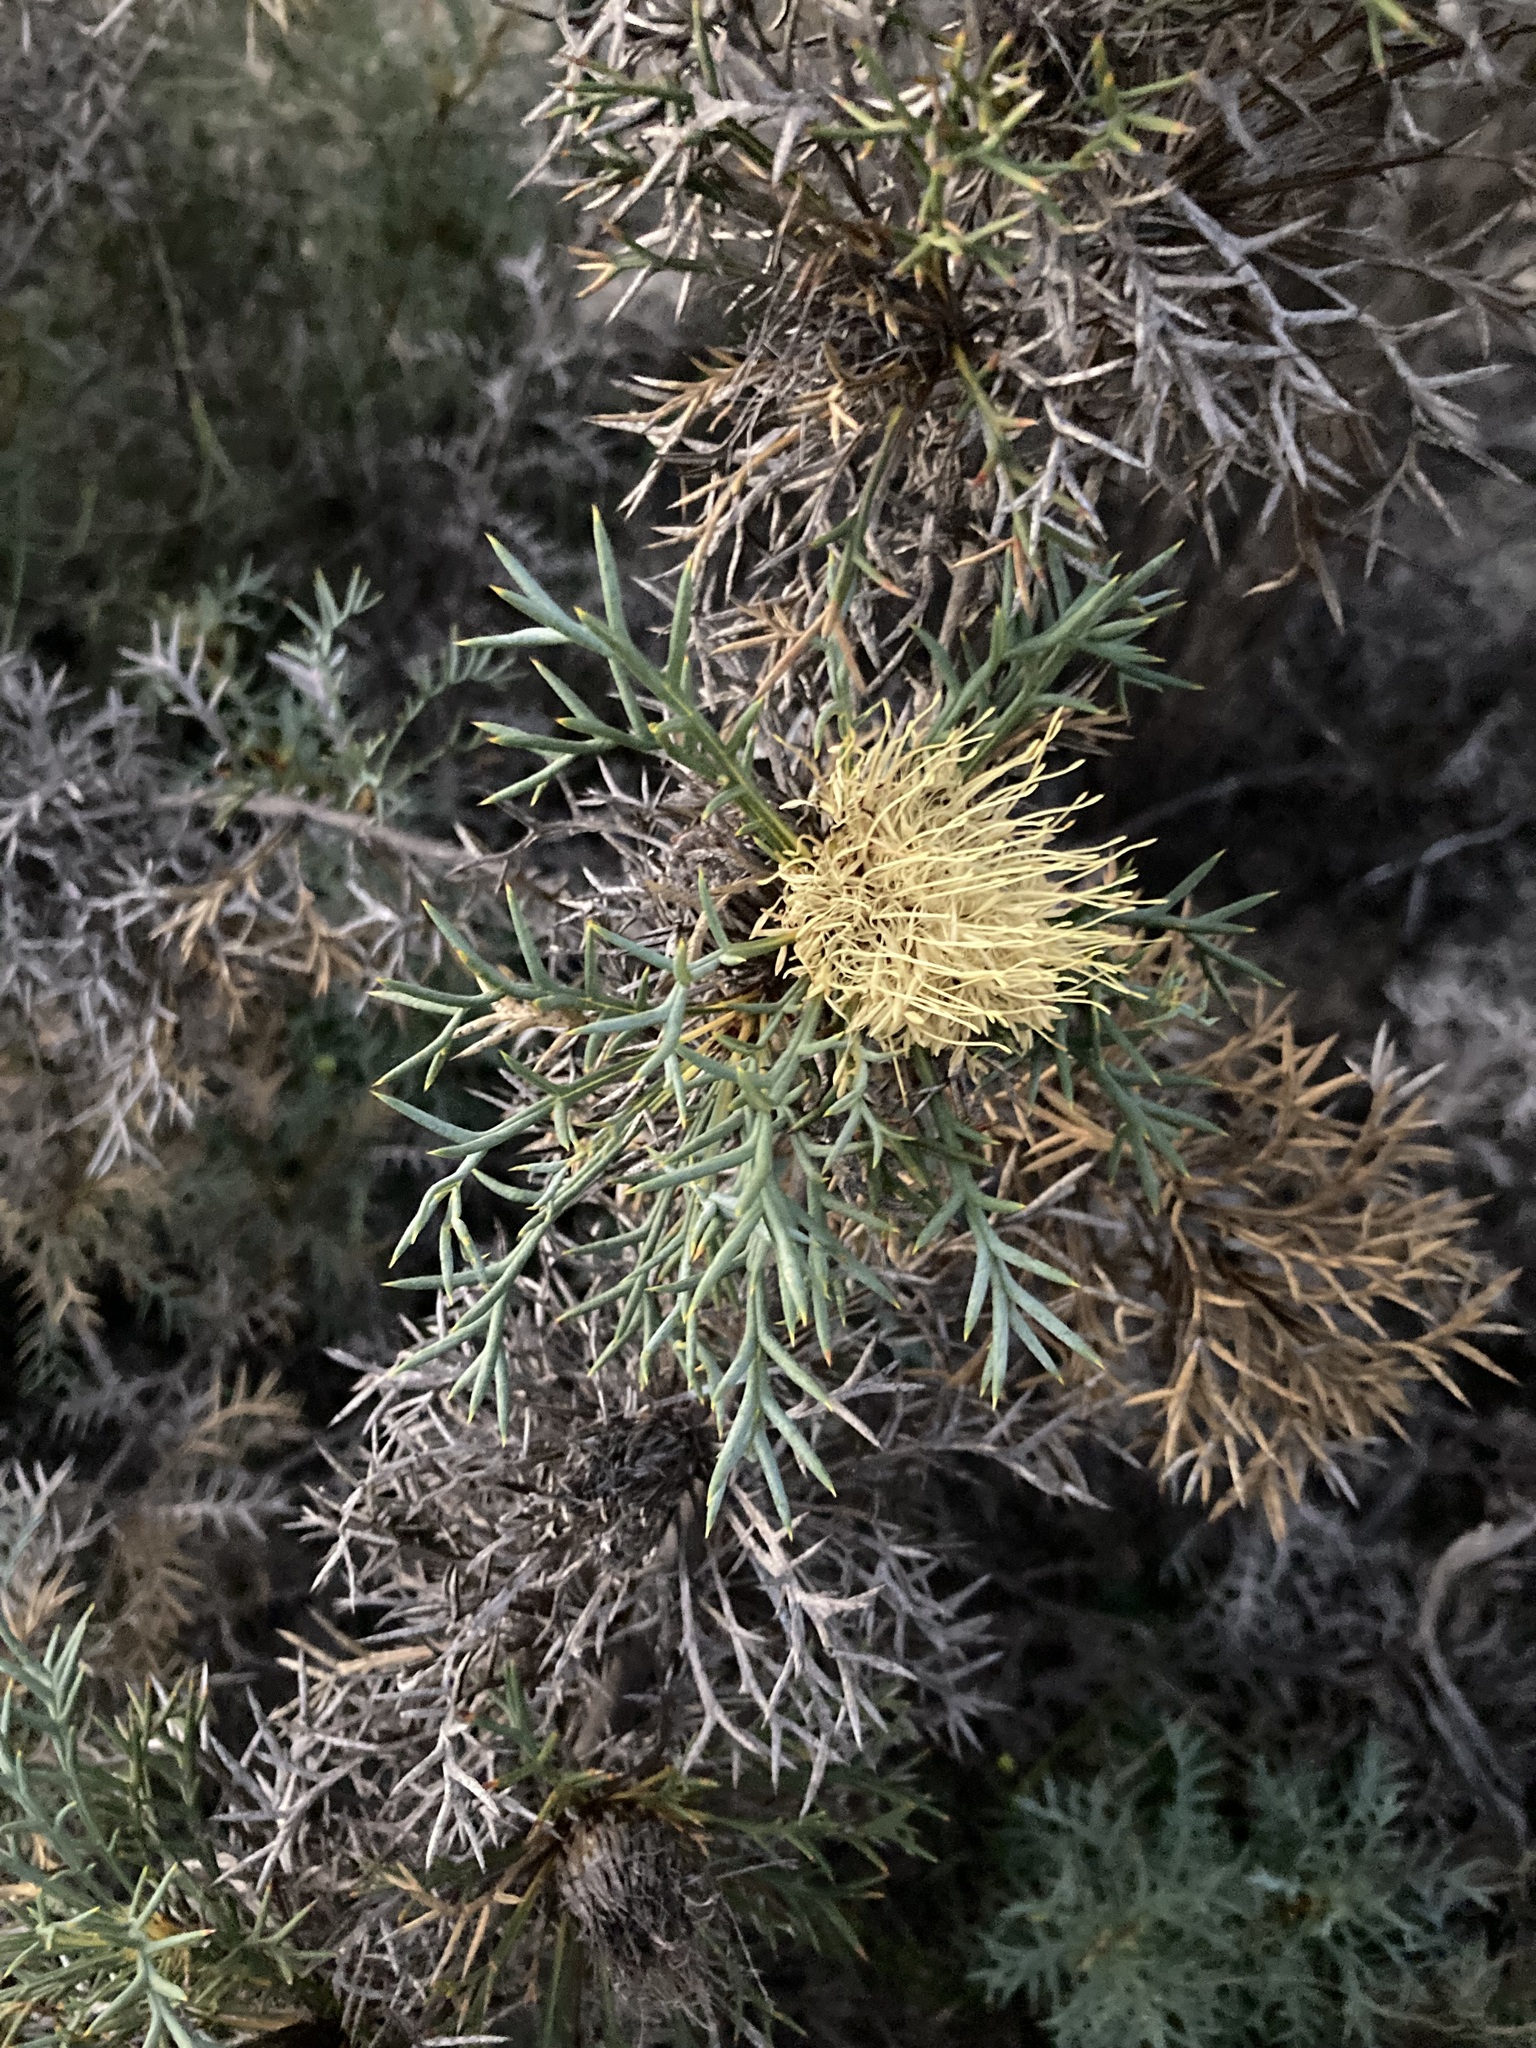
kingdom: Plantae
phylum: Tracheophyta
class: Magnoliopsida
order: Proteales
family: Proteaceae
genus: Banksia
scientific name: Banksia fraseri
